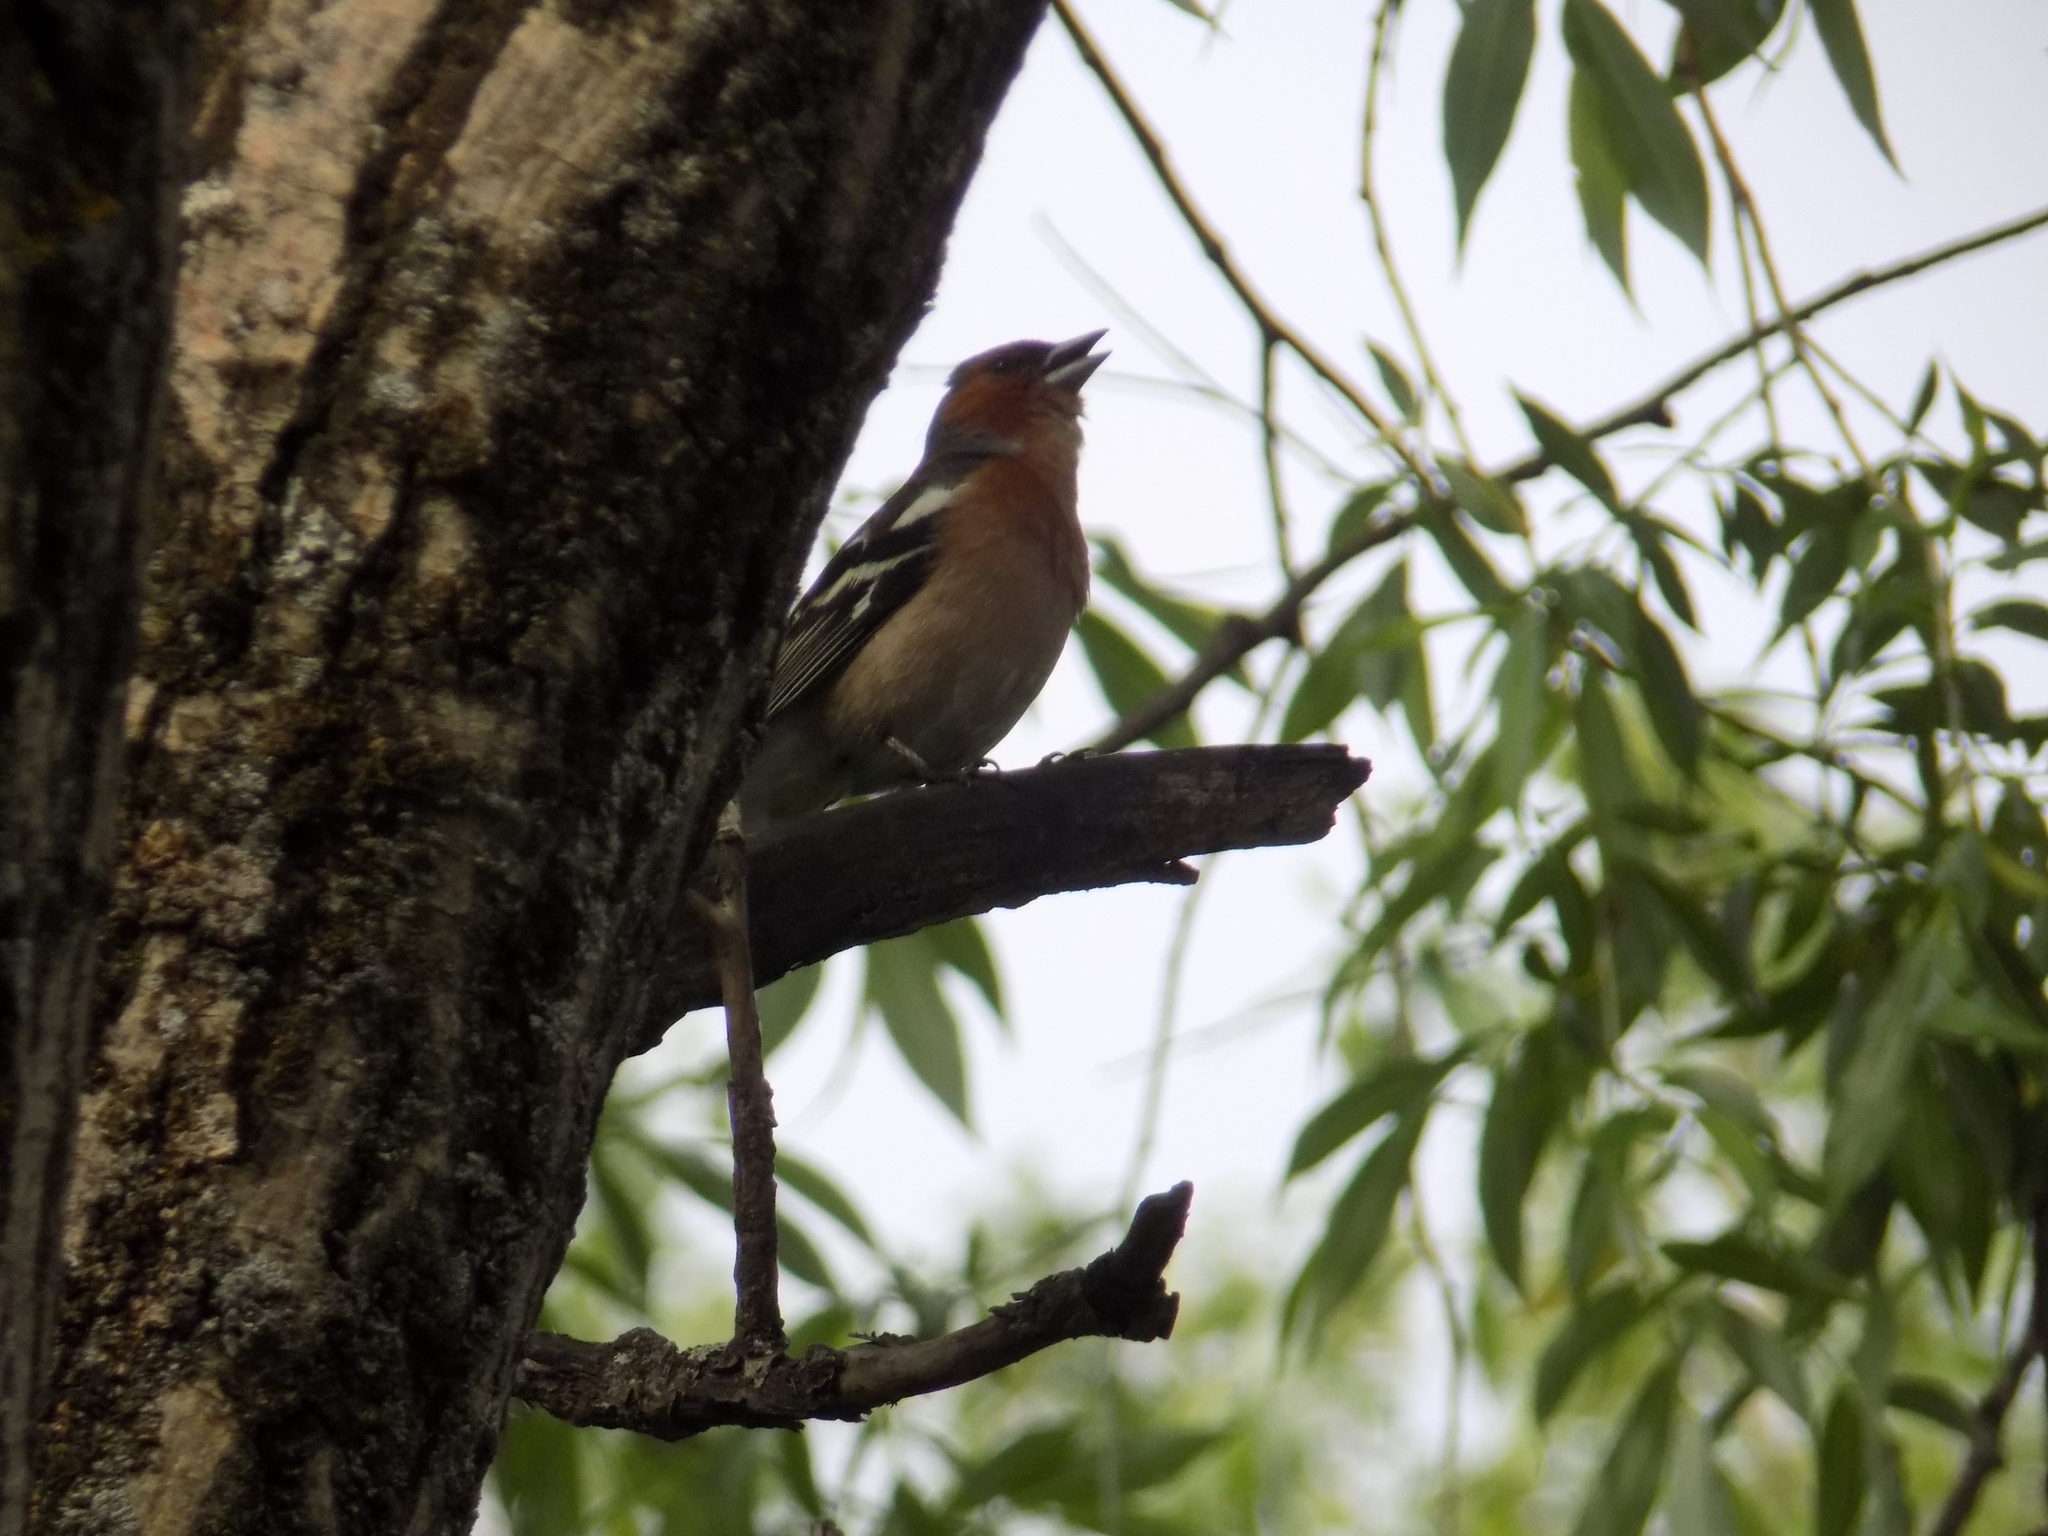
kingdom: Animalia
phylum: Chordata
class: Aves
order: Passeriformes
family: Fringillidae
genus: Fringilla
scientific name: Fringilla coelebs
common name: Common chaffinch
